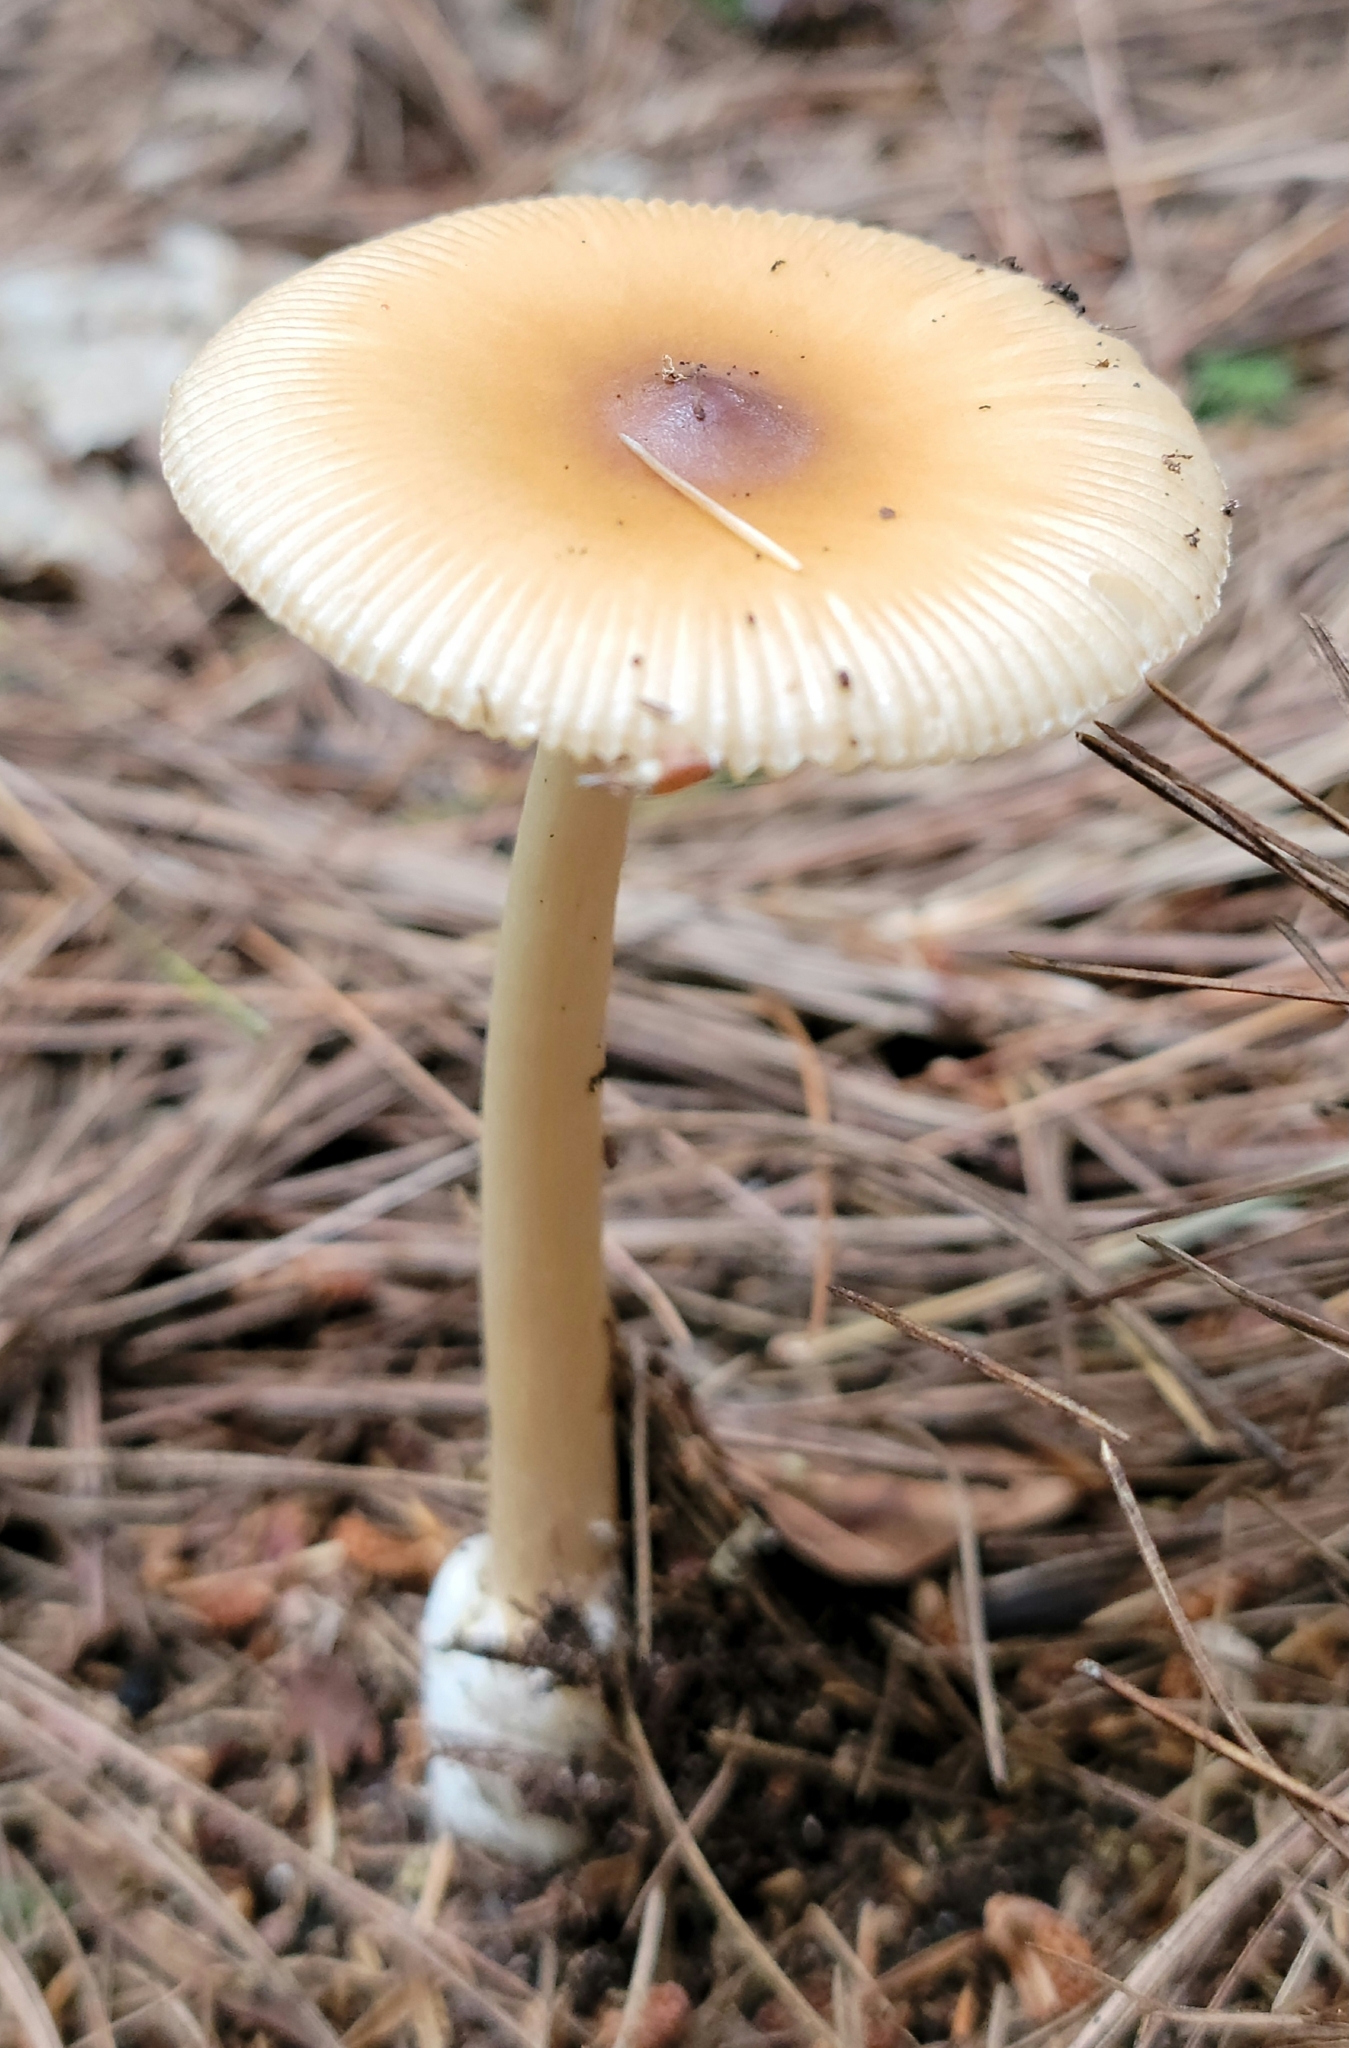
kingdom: Fungi
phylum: Basidiomycota
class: Agaricomycetes
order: Agaricales
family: Amanitaceae
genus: Amanita
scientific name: Amanita fulva
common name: Tawny grisette
